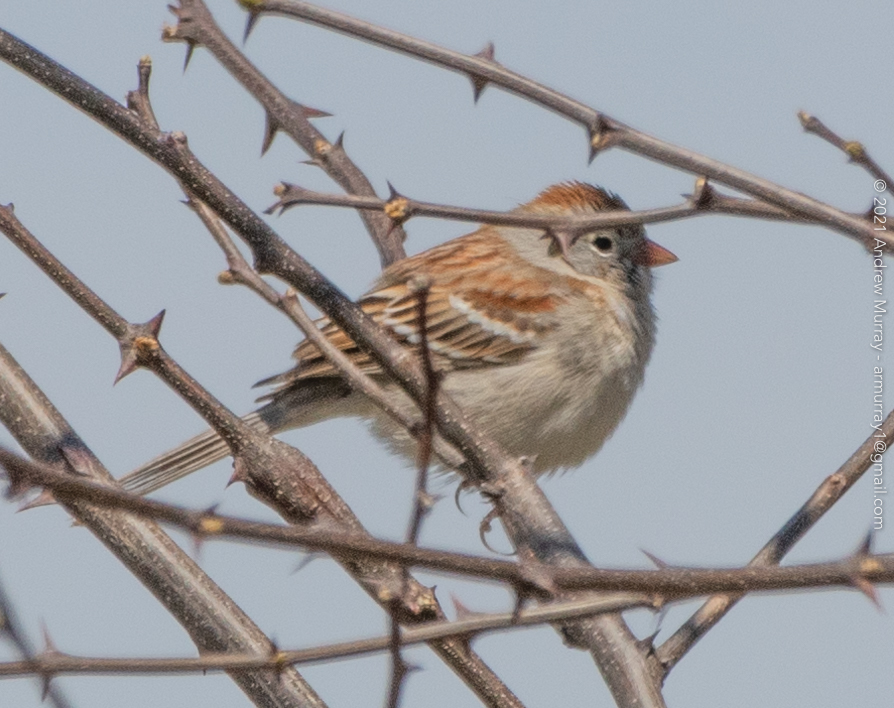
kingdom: Animalia
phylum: Chordata
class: Aves
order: Passeriformes
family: Passerellidae
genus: Spizella
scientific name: Spizella pusilla
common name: Field sparrow
